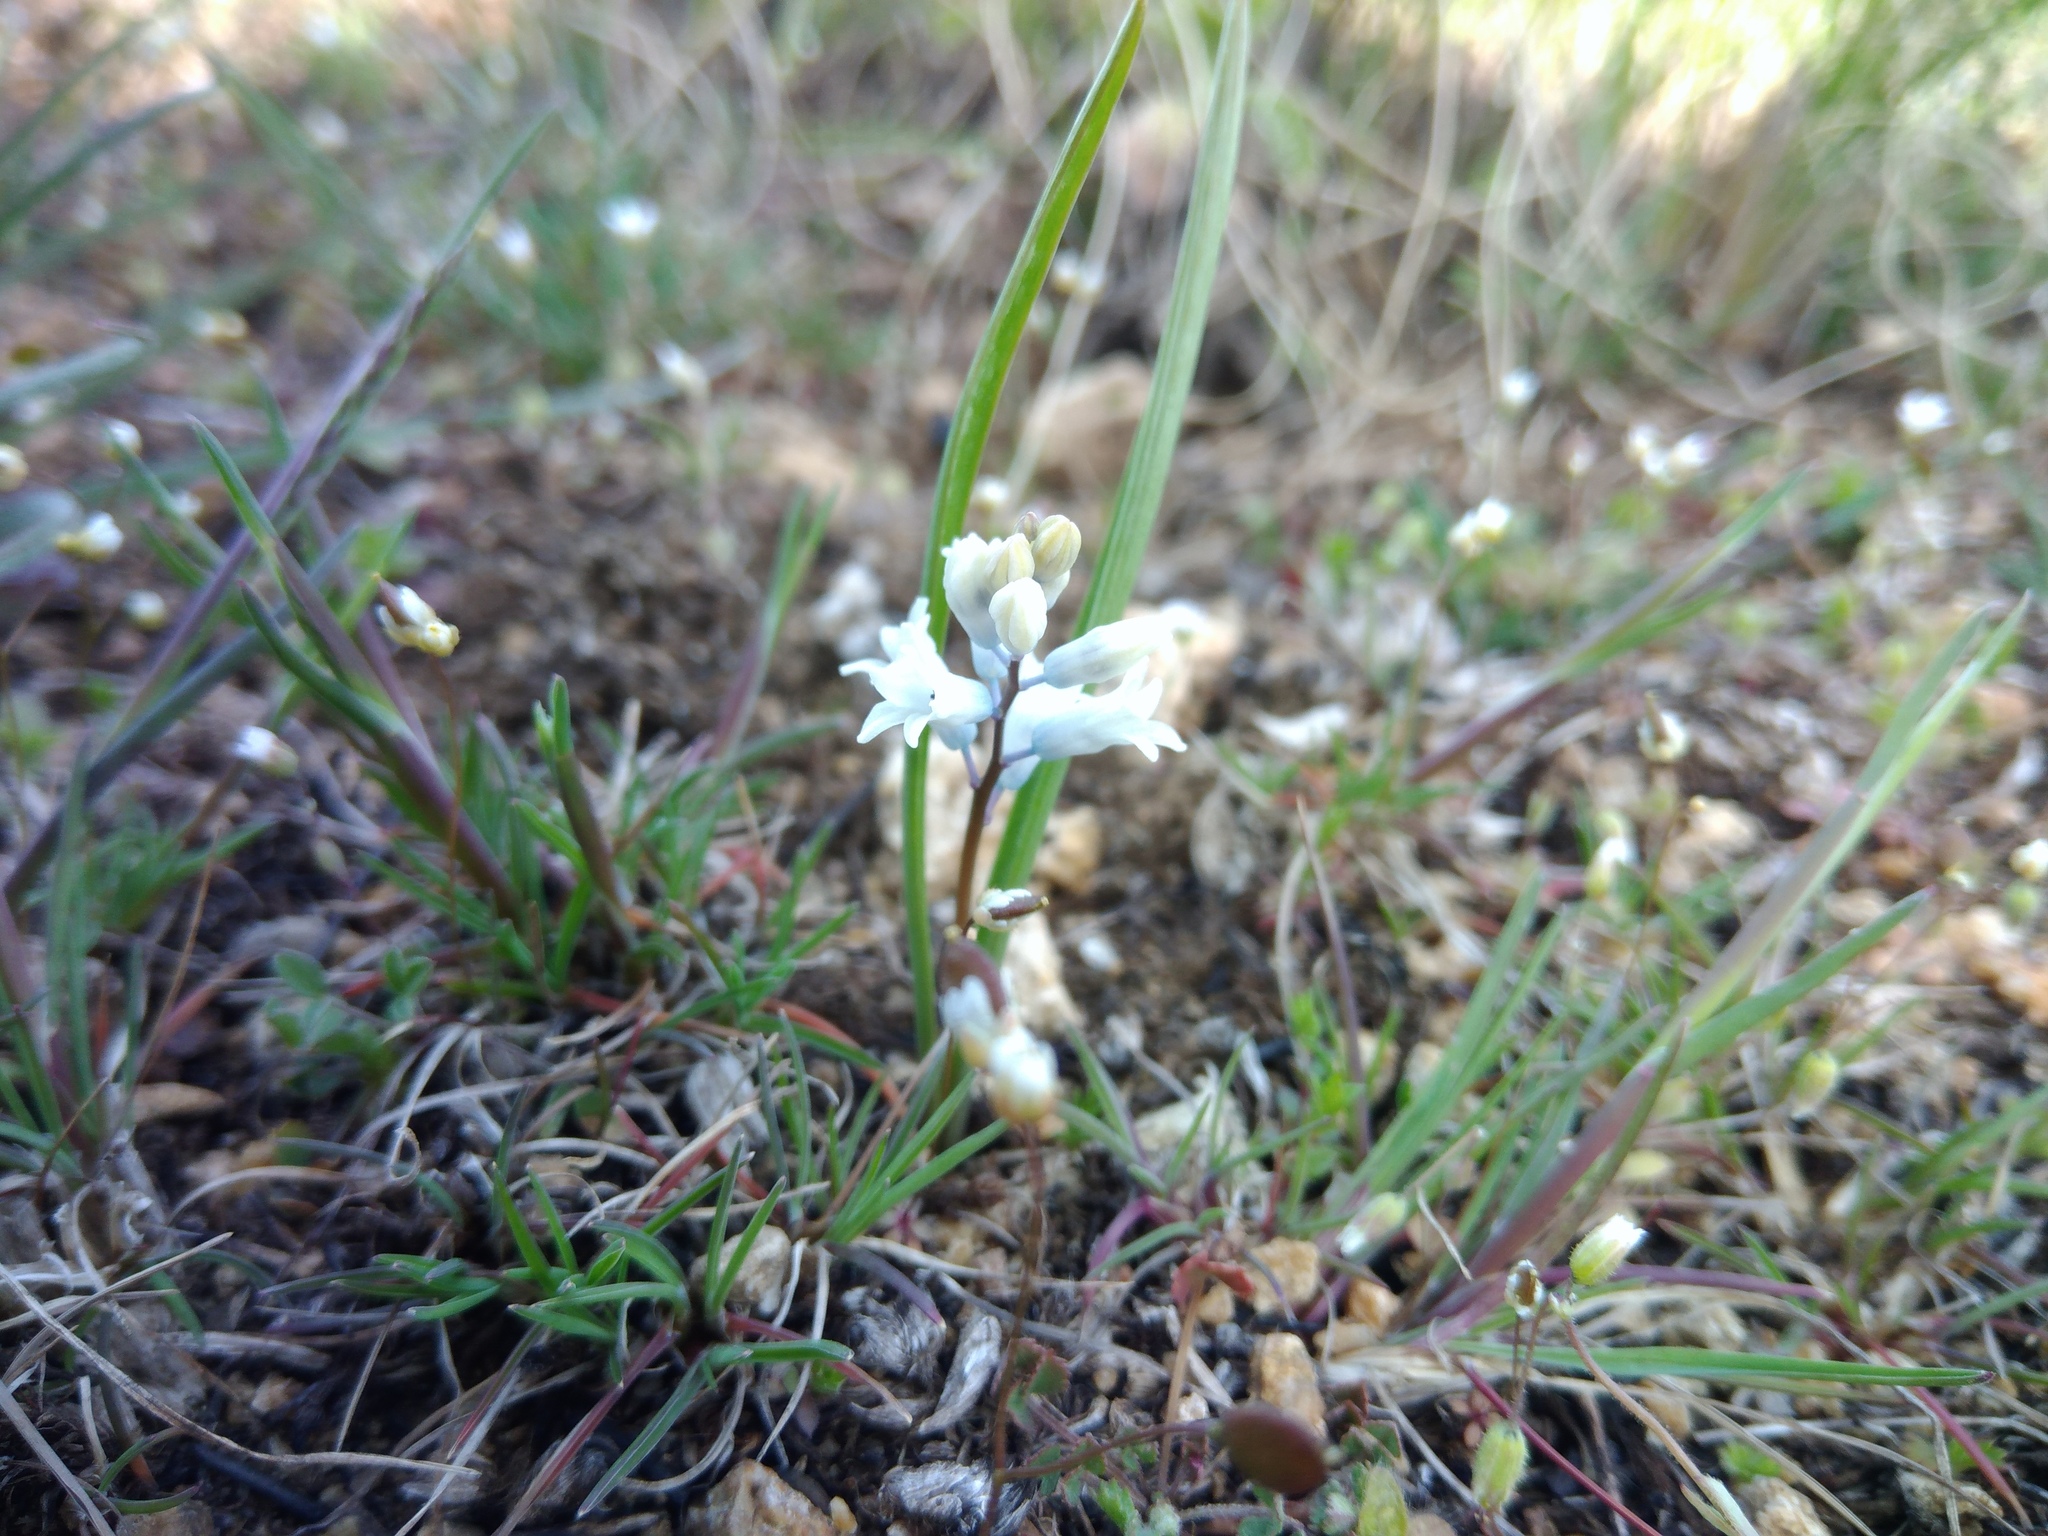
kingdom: Plantae
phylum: Tracheophyta
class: Liliopsida
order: Asparagales
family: Asparagaceae
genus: Hyacinthella
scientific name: Hyacinthella leucophaea
